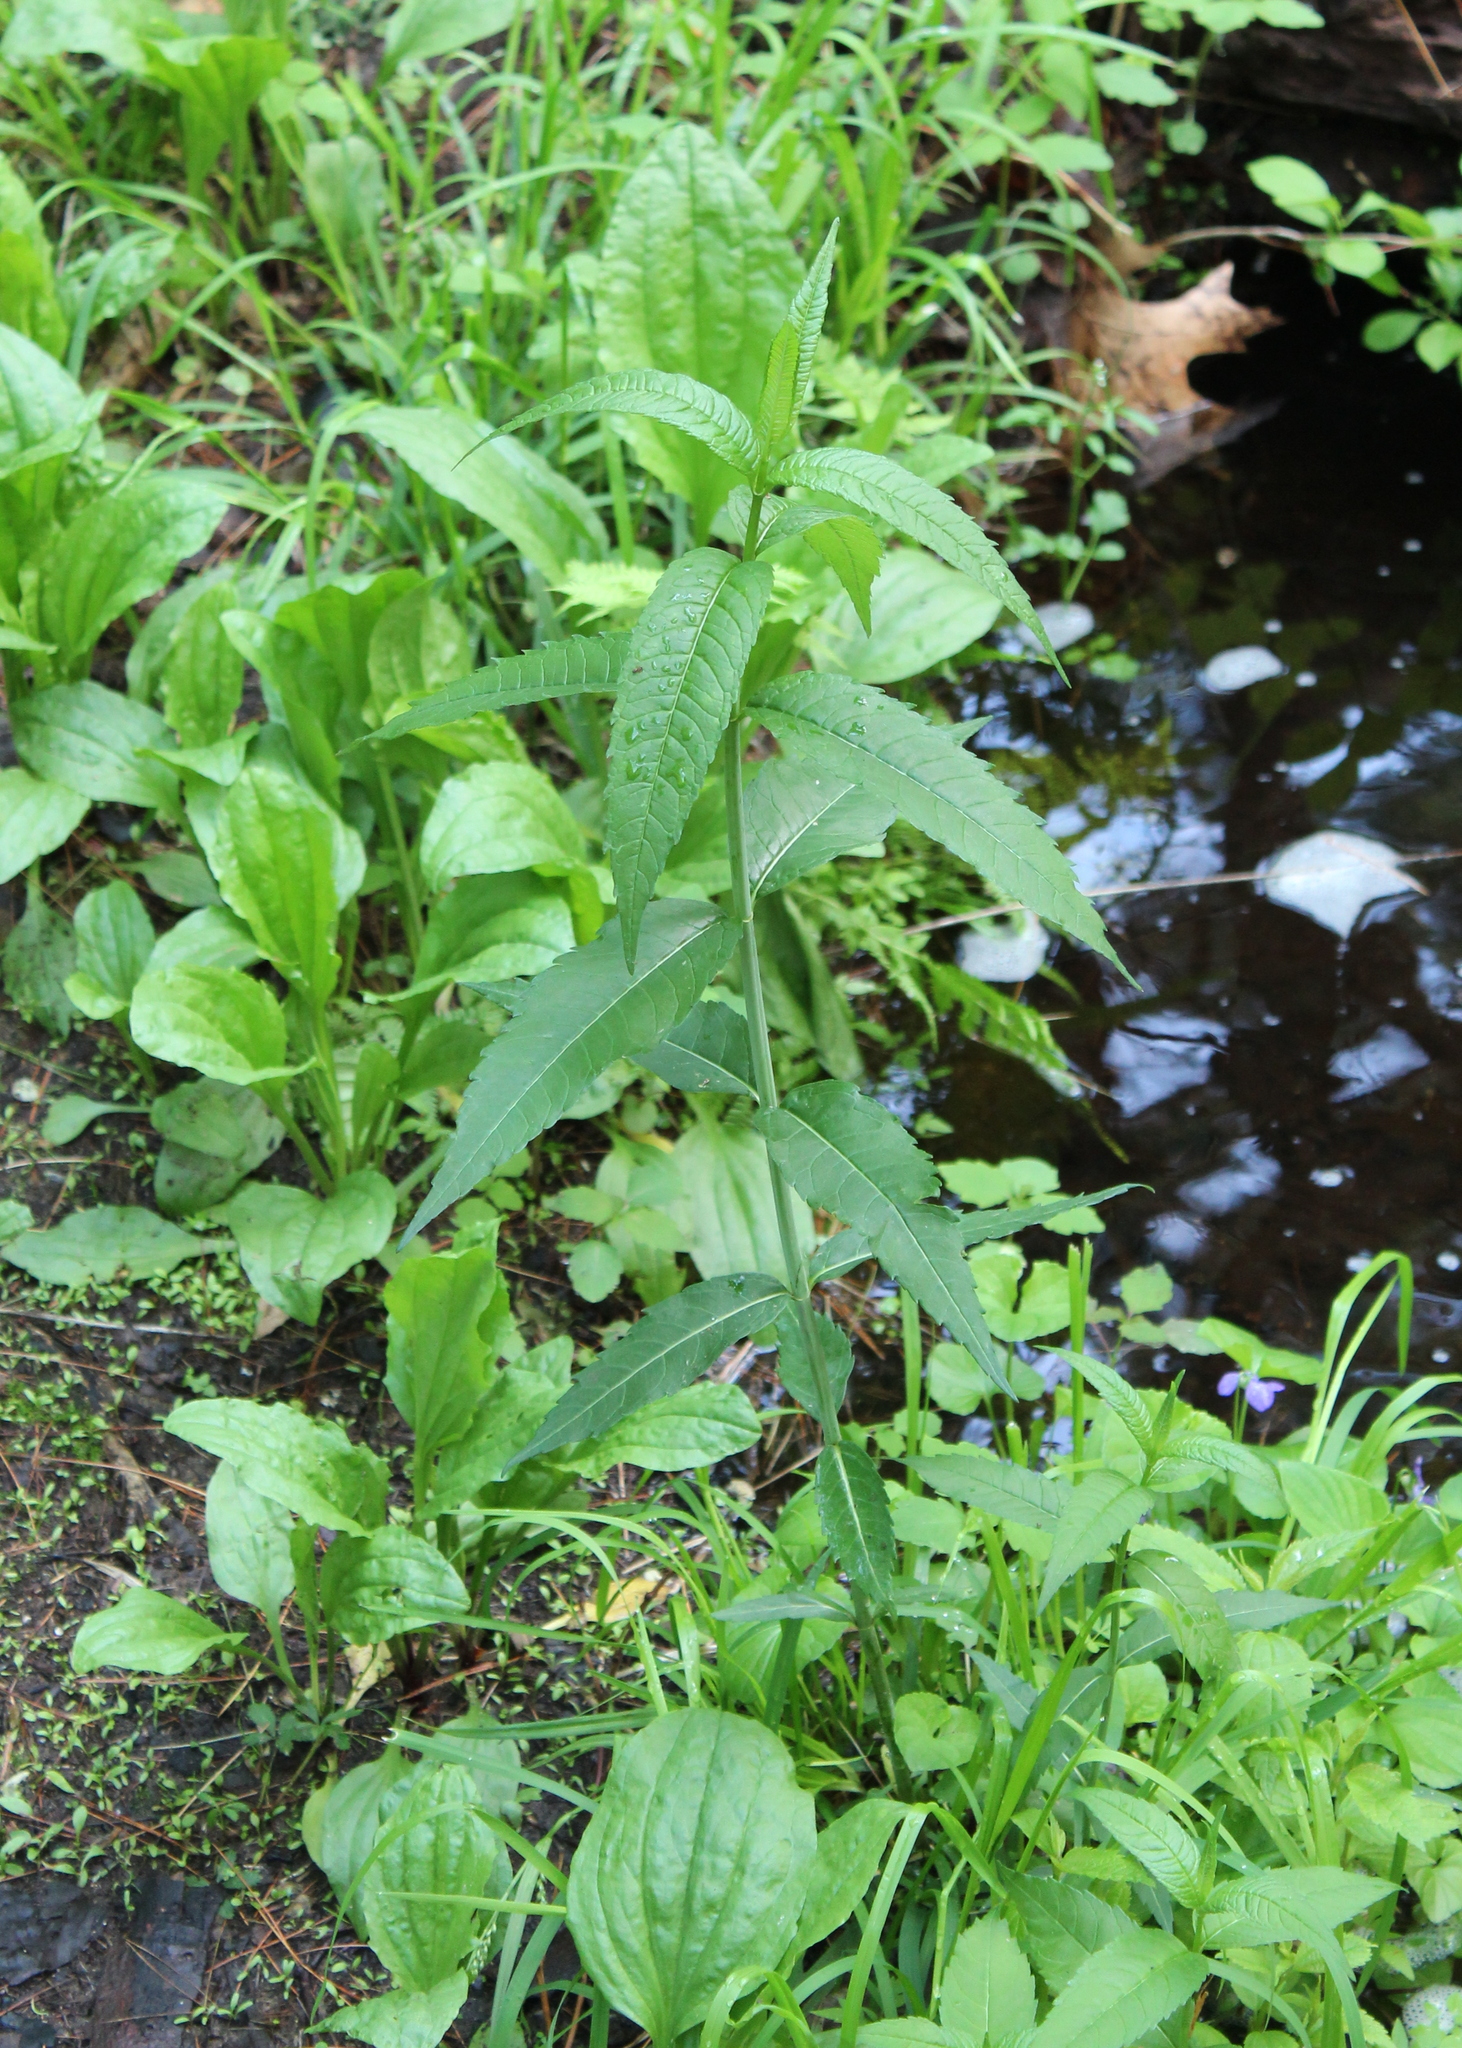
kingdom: Plantae
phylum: Tracheophyta
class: Magnoliopsida
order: Lamiales
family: Plantaginaceae
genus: Chelone
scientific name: Chelone glabra
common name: Snakehead
